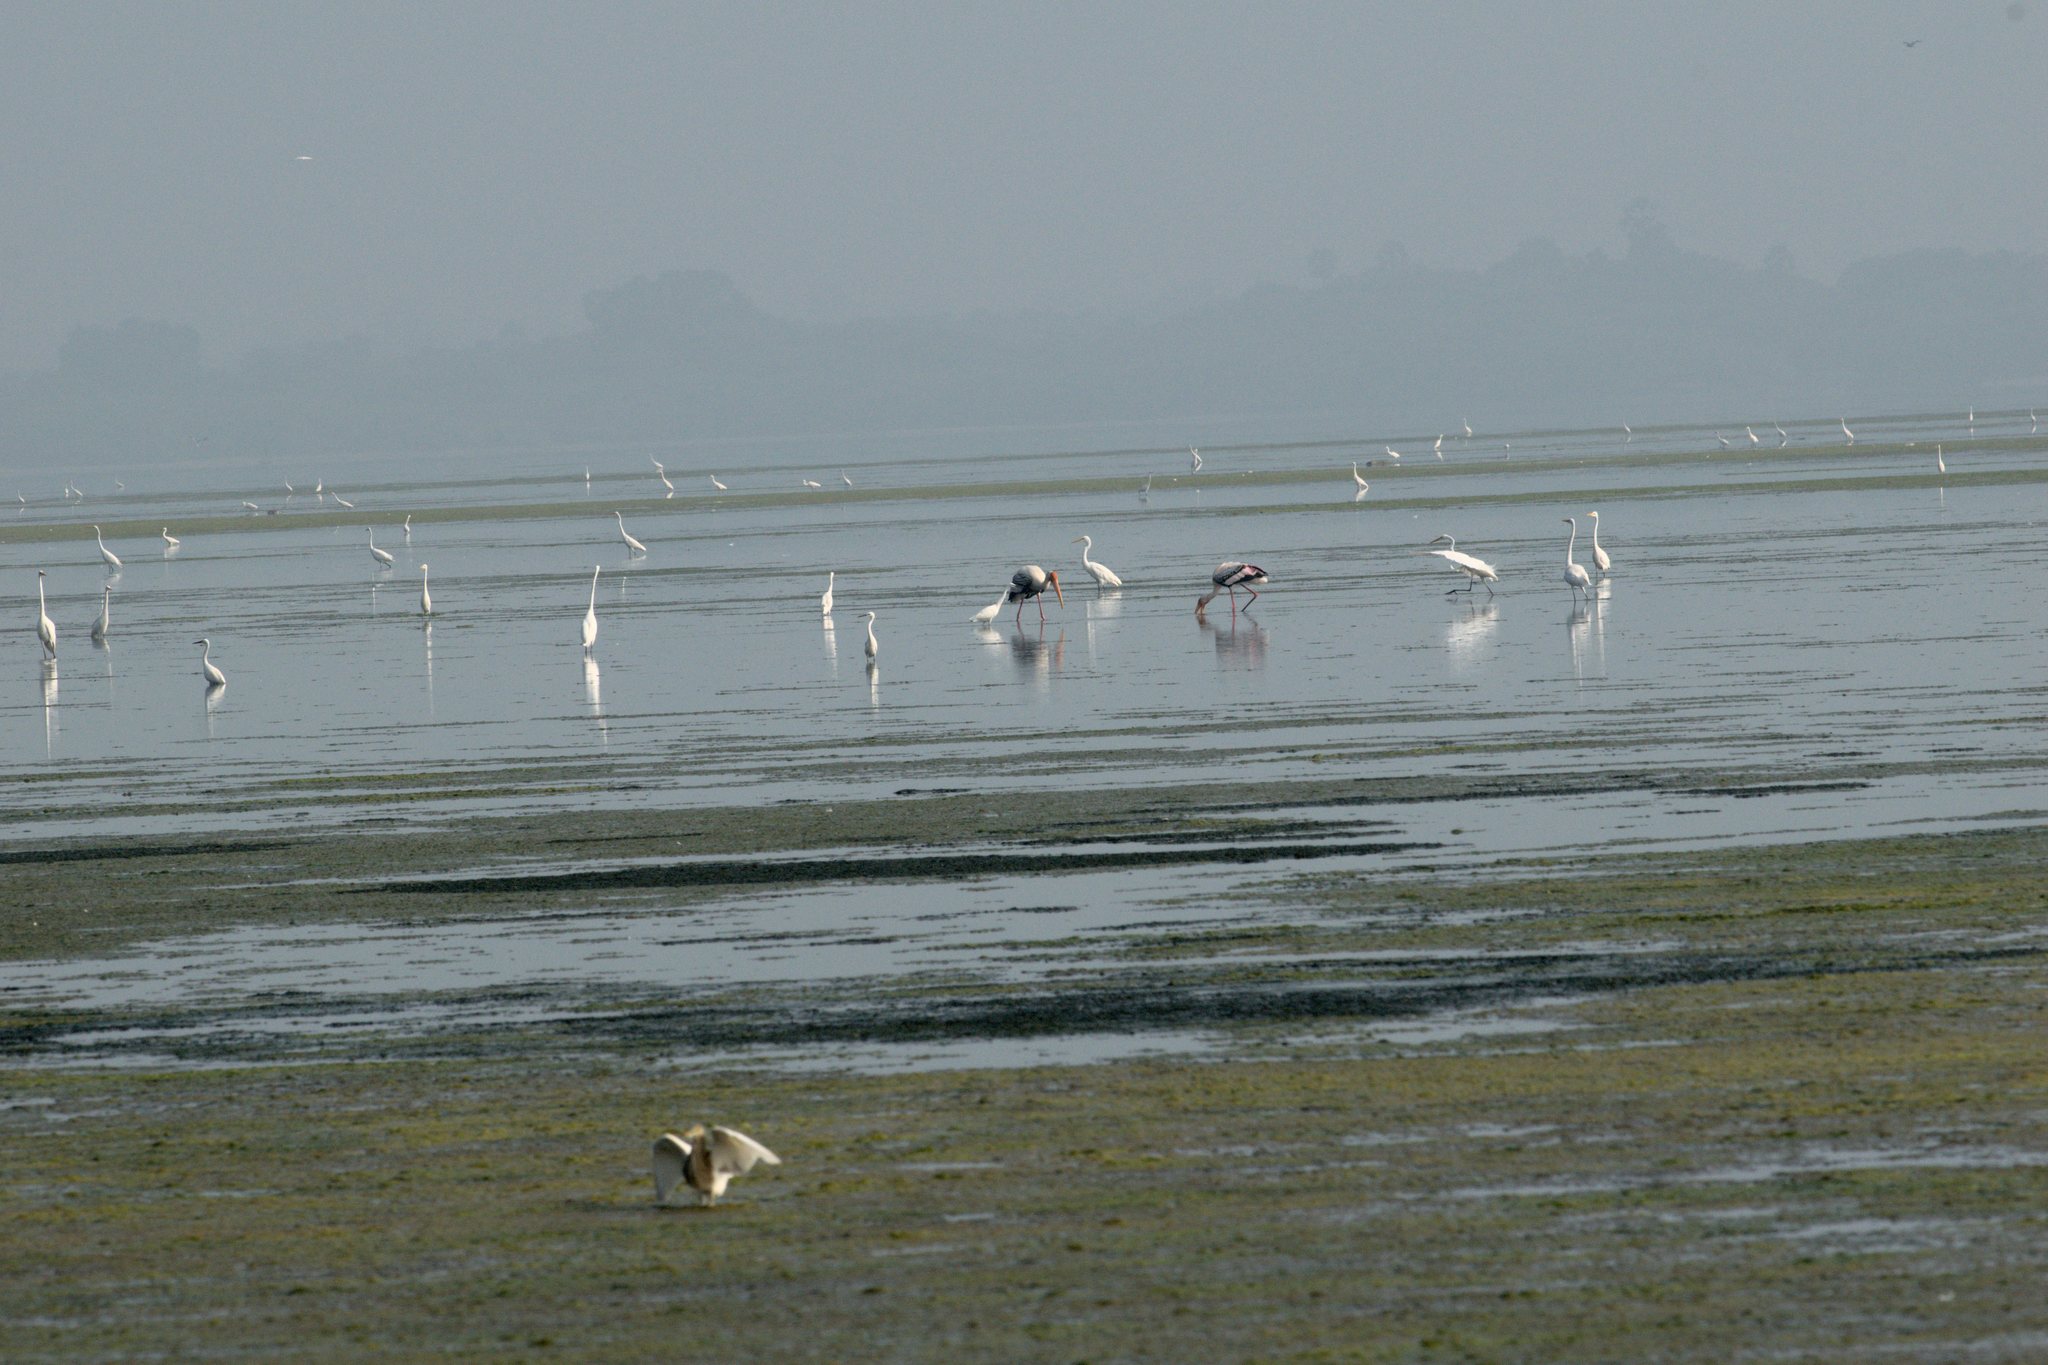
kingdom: Animalia
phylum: Chordata
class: Aves
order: Pelecaniformes
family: Ardeidae
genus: Ardea
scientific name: Ardea alba
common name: Great egret
